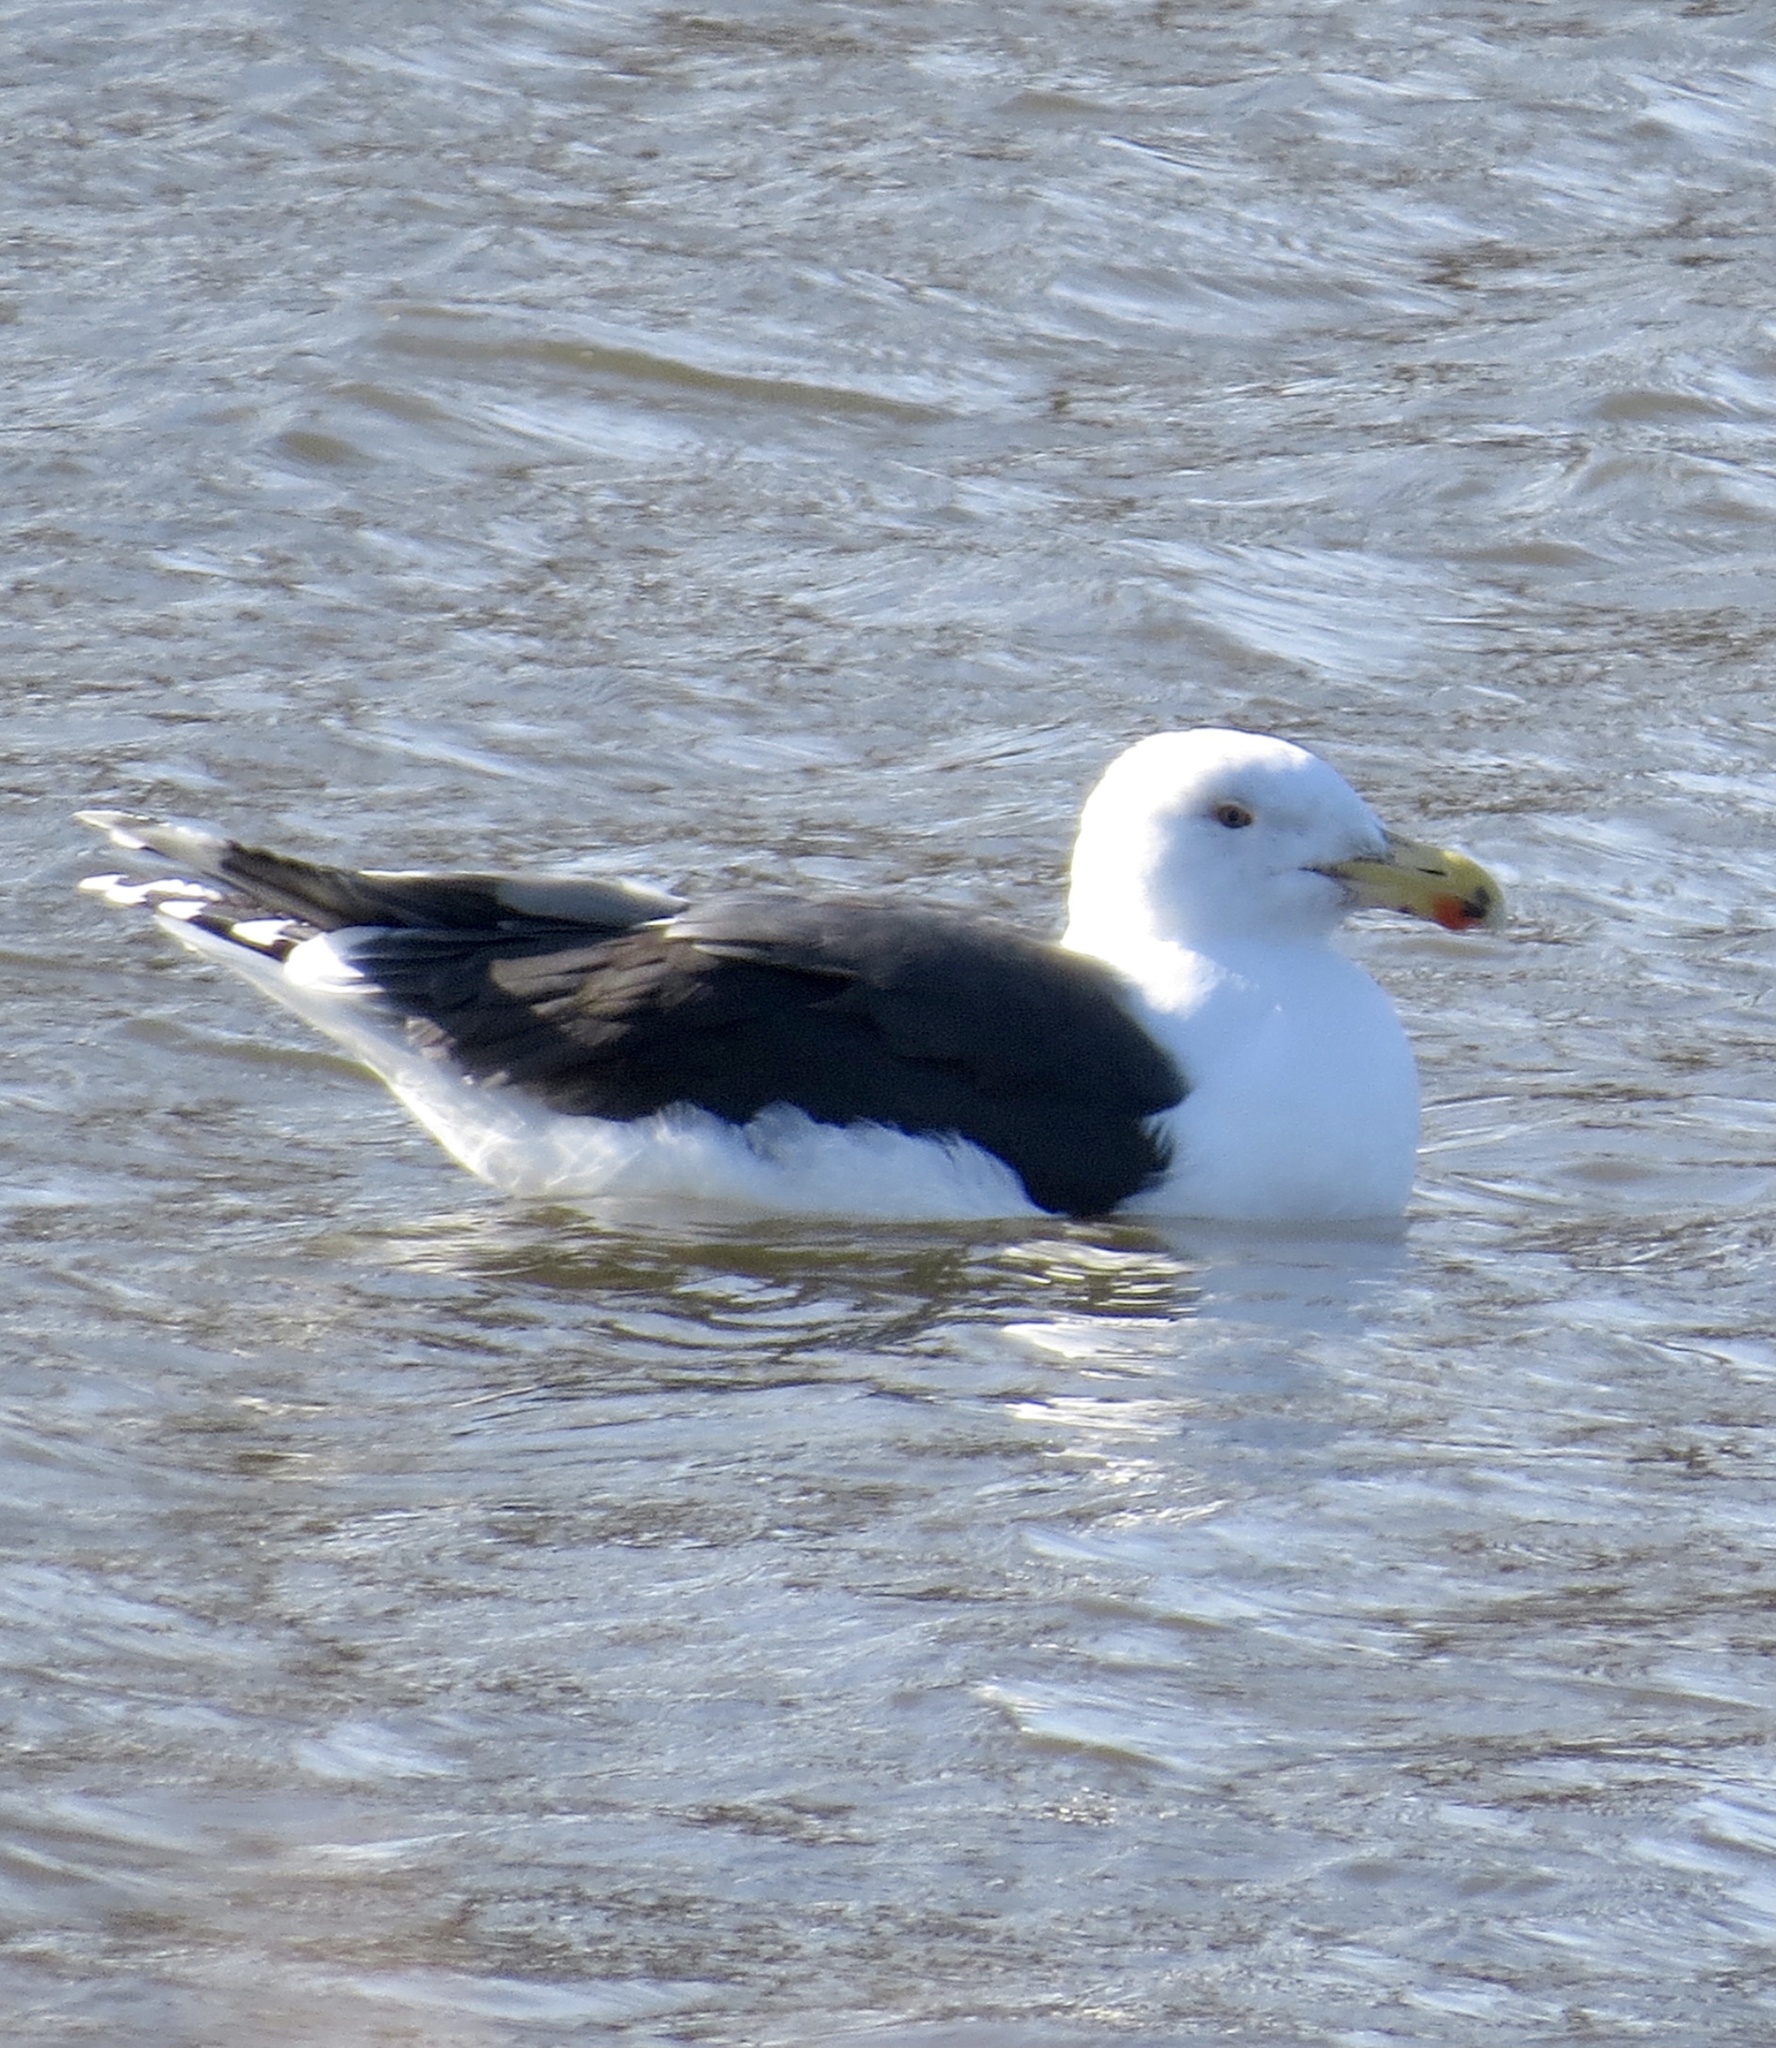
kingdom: Animalia
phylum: Chordata
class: Aves
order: Charadriiformes
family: Laridae
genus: Larus
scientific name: Larus marinus
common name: Great black-backed gull
